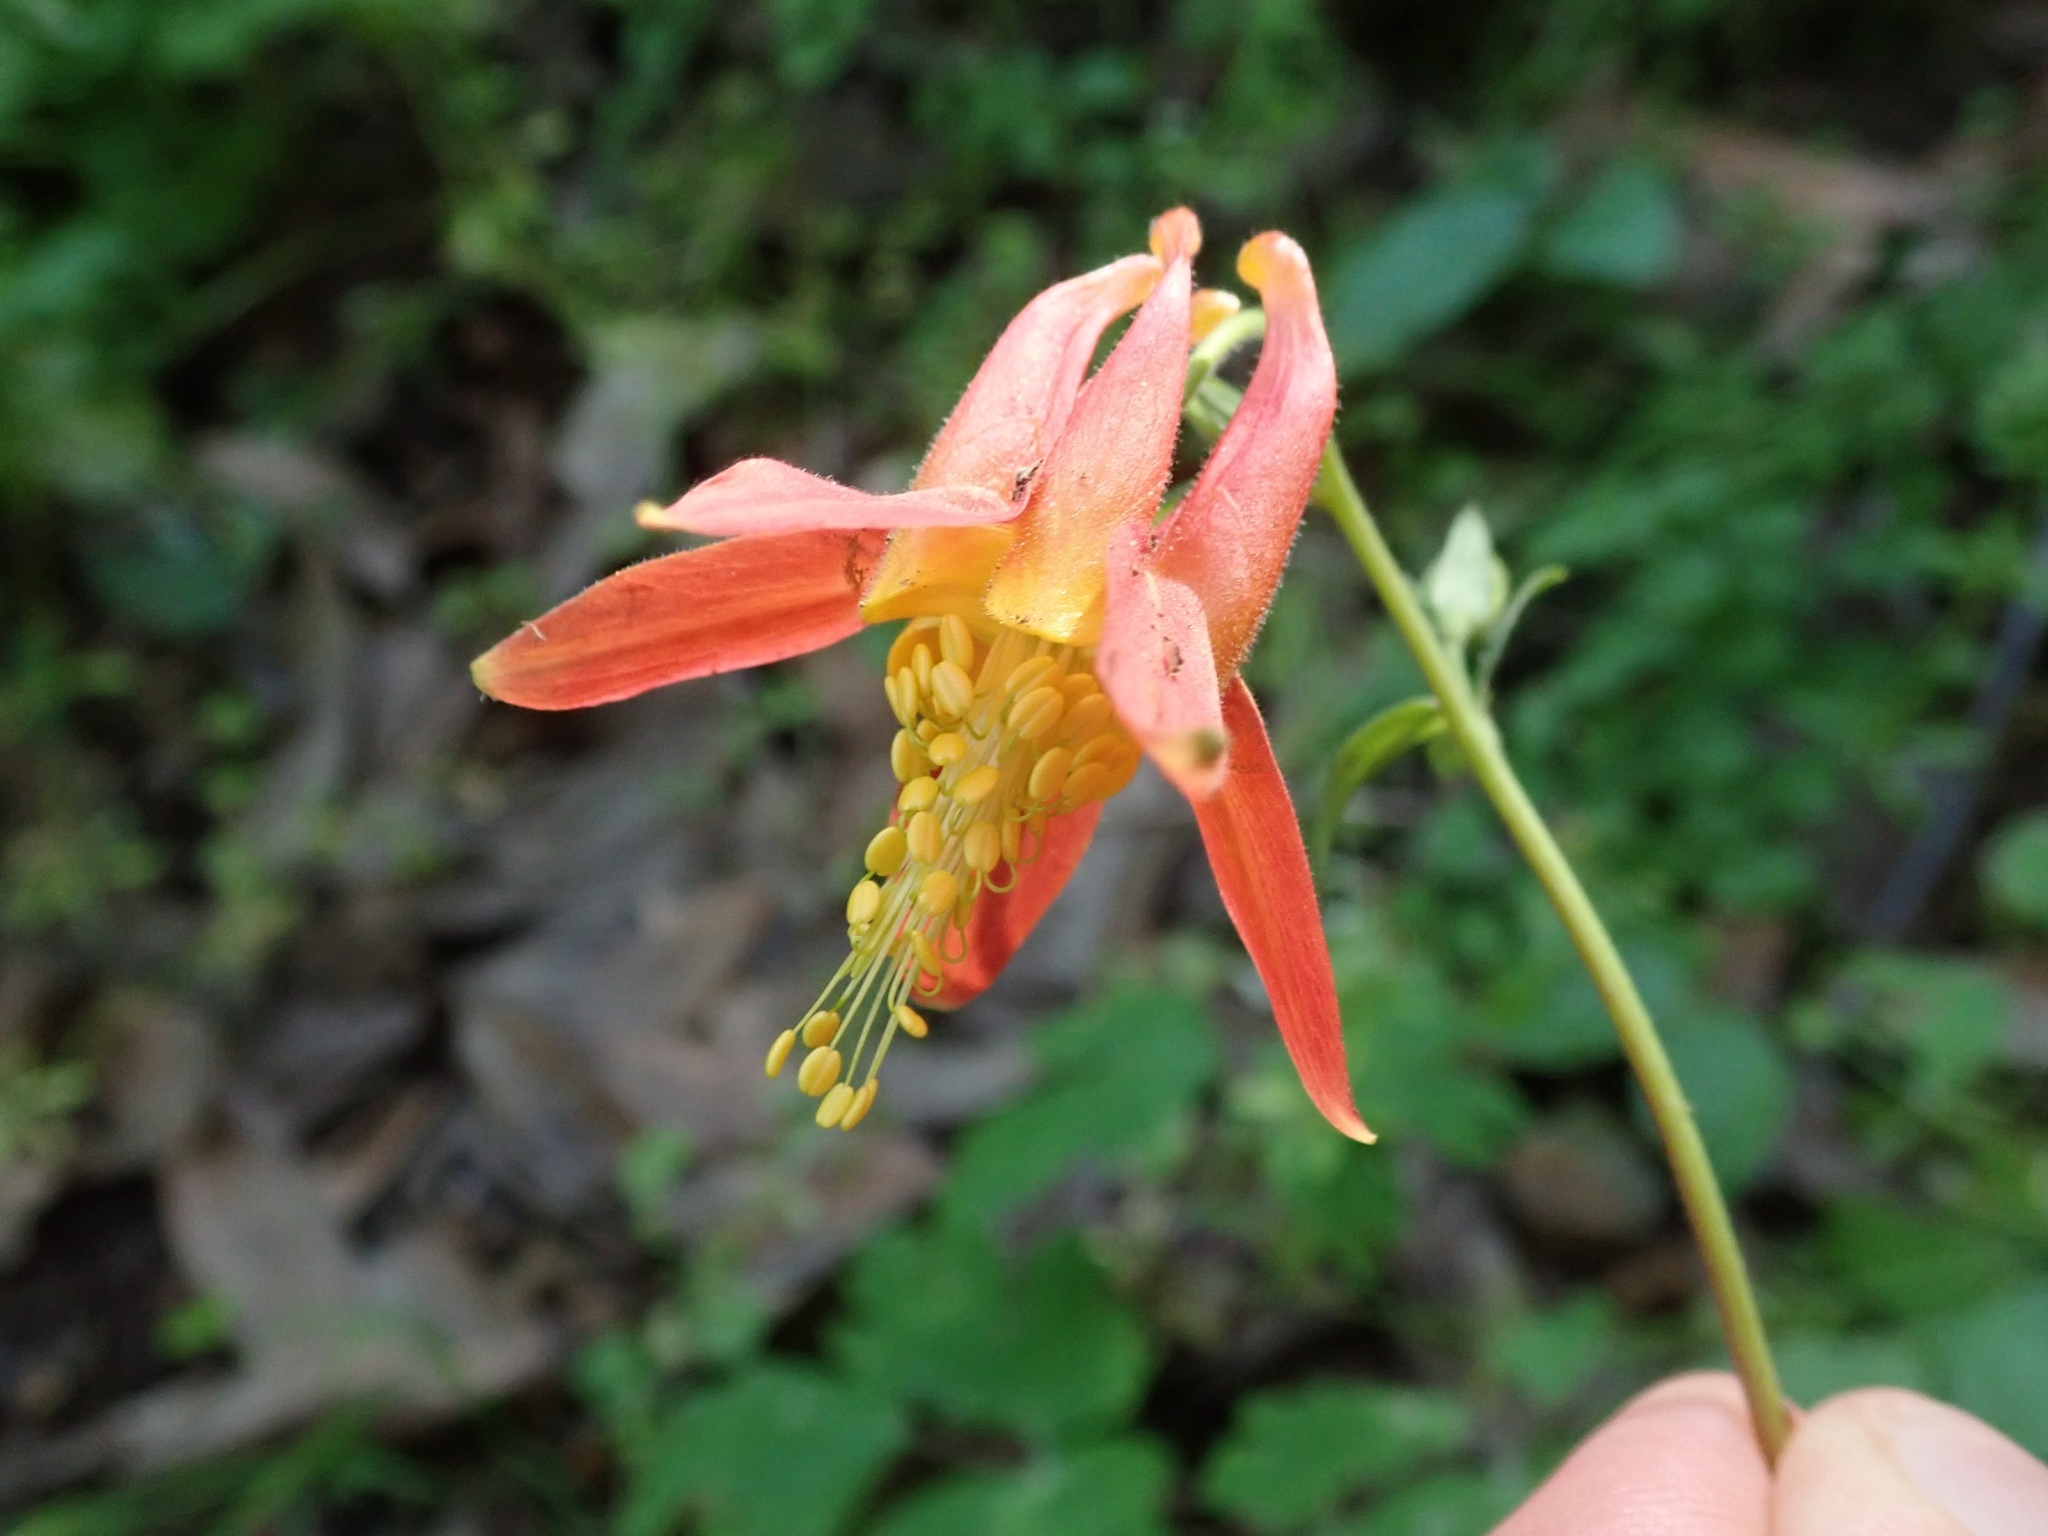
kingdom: Plantae
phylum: Tracheophyta
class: Magnoliopsida
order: Ranunculales
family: Ranunculaceae
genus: Aquilegia
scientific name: Aquilegia formosa
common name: Sitka columbine
